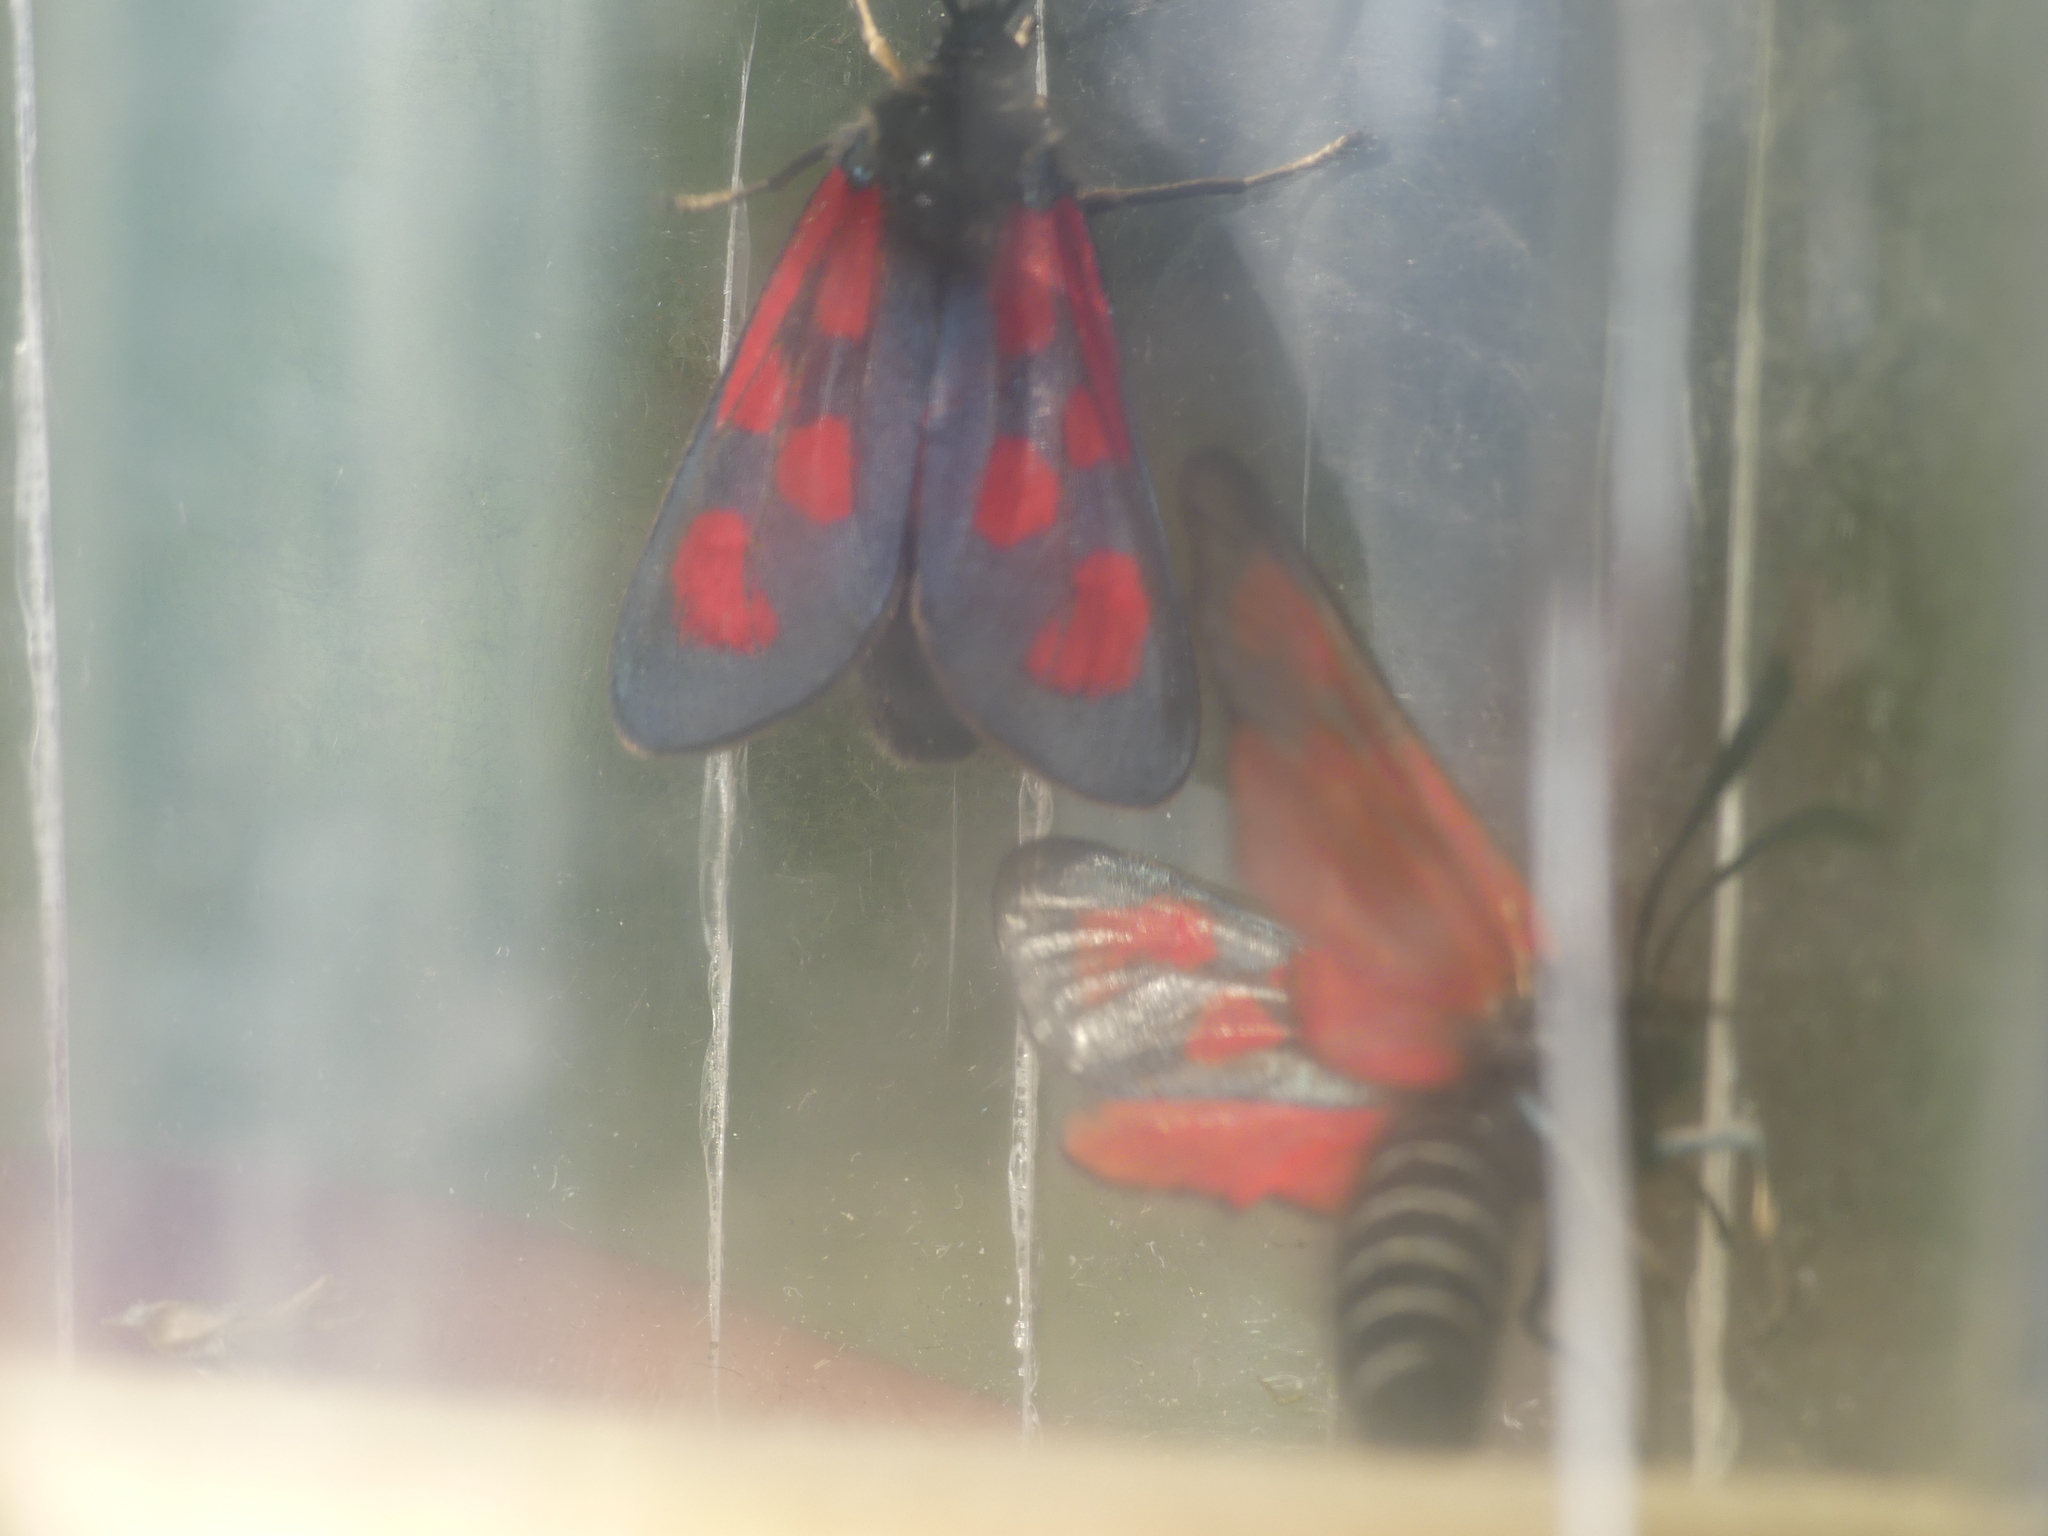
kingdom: Animalia
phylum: Arthropoda
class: Insecta
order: Lepidoptera
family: Zygaenidae
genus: Zygaena
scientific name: Zygaena loti
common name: Slender scotch burnet
